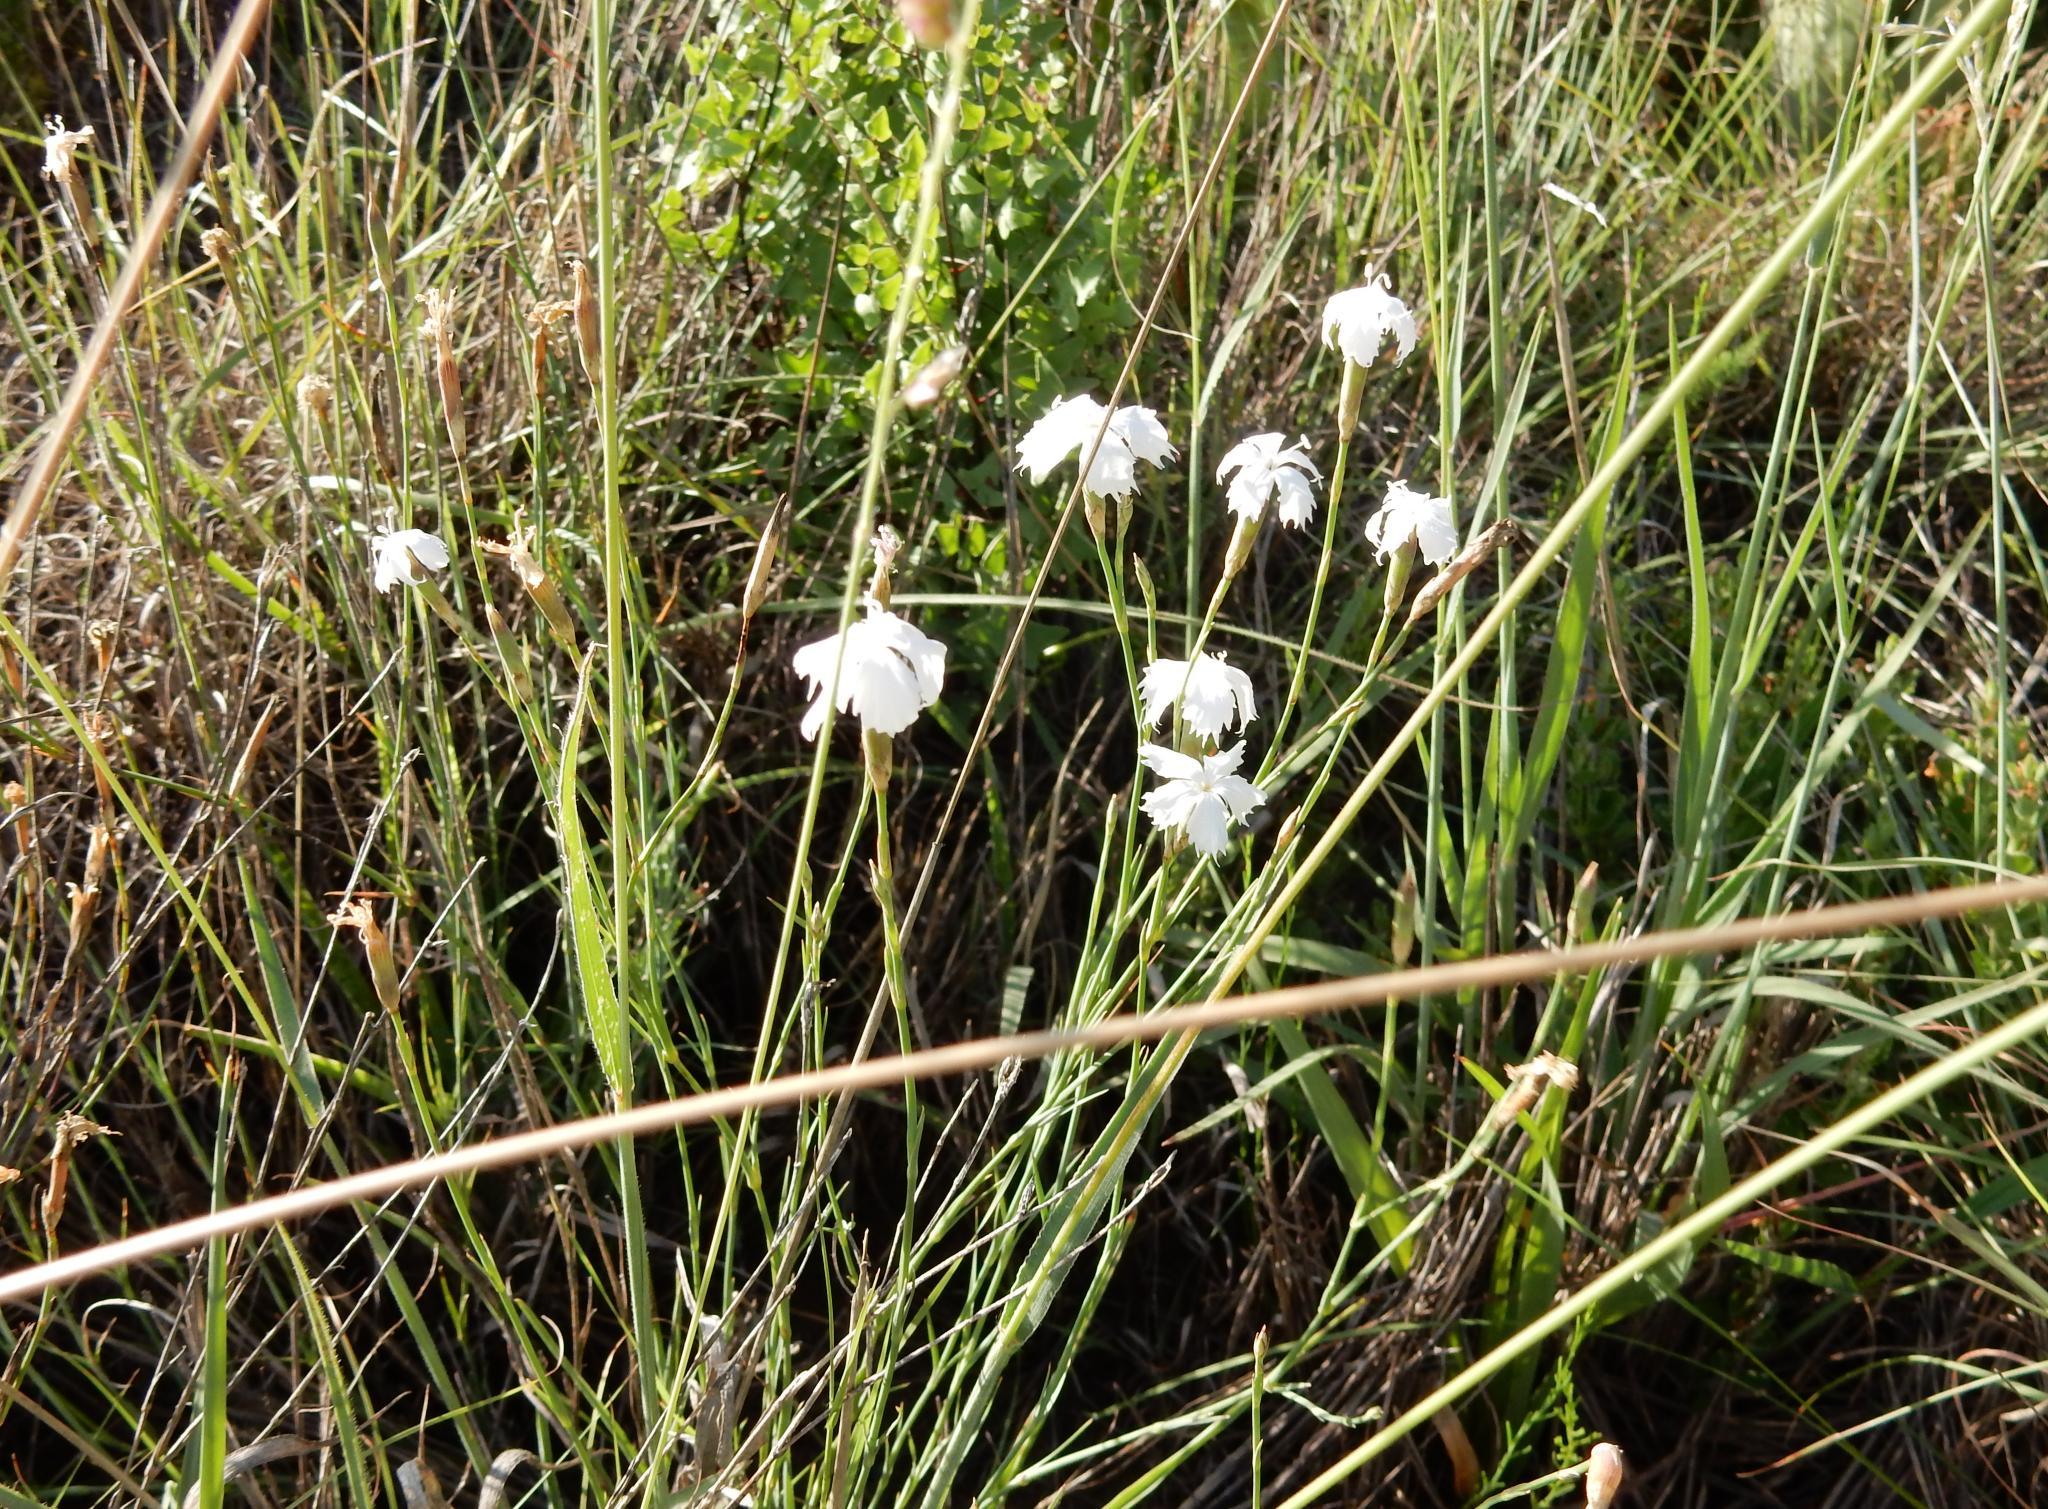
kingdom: Plantae
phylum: Tracheophyta
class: Magnoliopsida
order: Caryophyllales
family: Caryophyllaceae
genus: Dianthus
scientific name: Dianthus mooiensis
